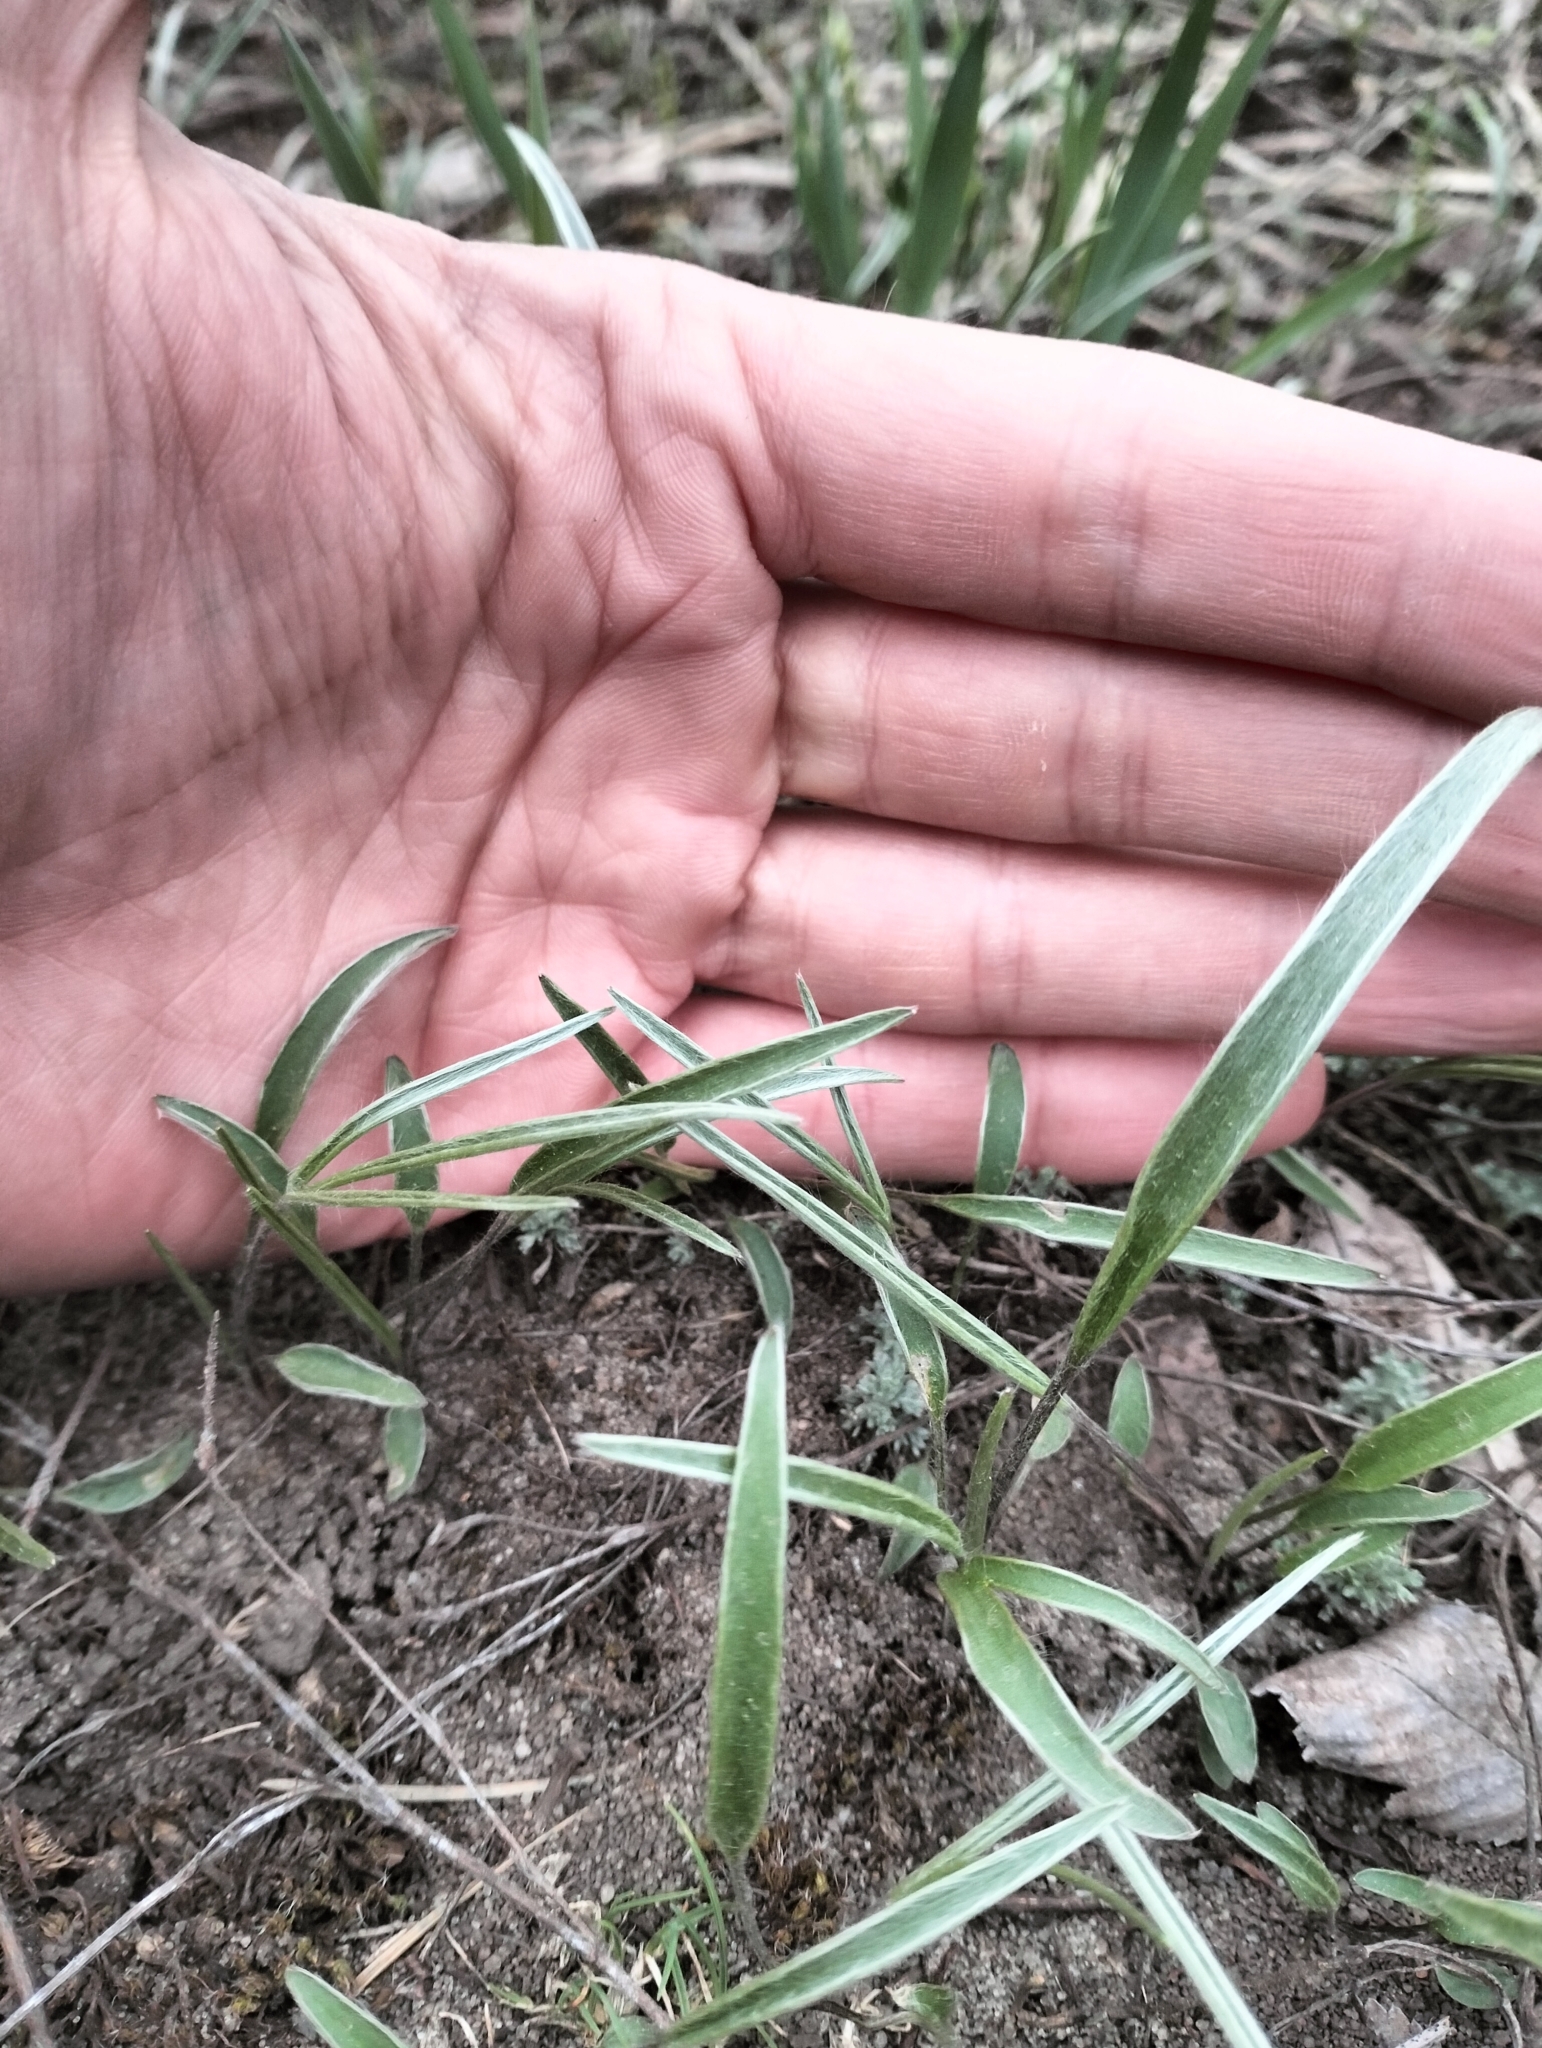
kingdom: Plantae
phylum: Tracheophyta
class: Magnoliopsida
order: Ranunculales
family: Ranunculaceae
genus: Ranunculus
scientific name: Ranunculus illyricus
